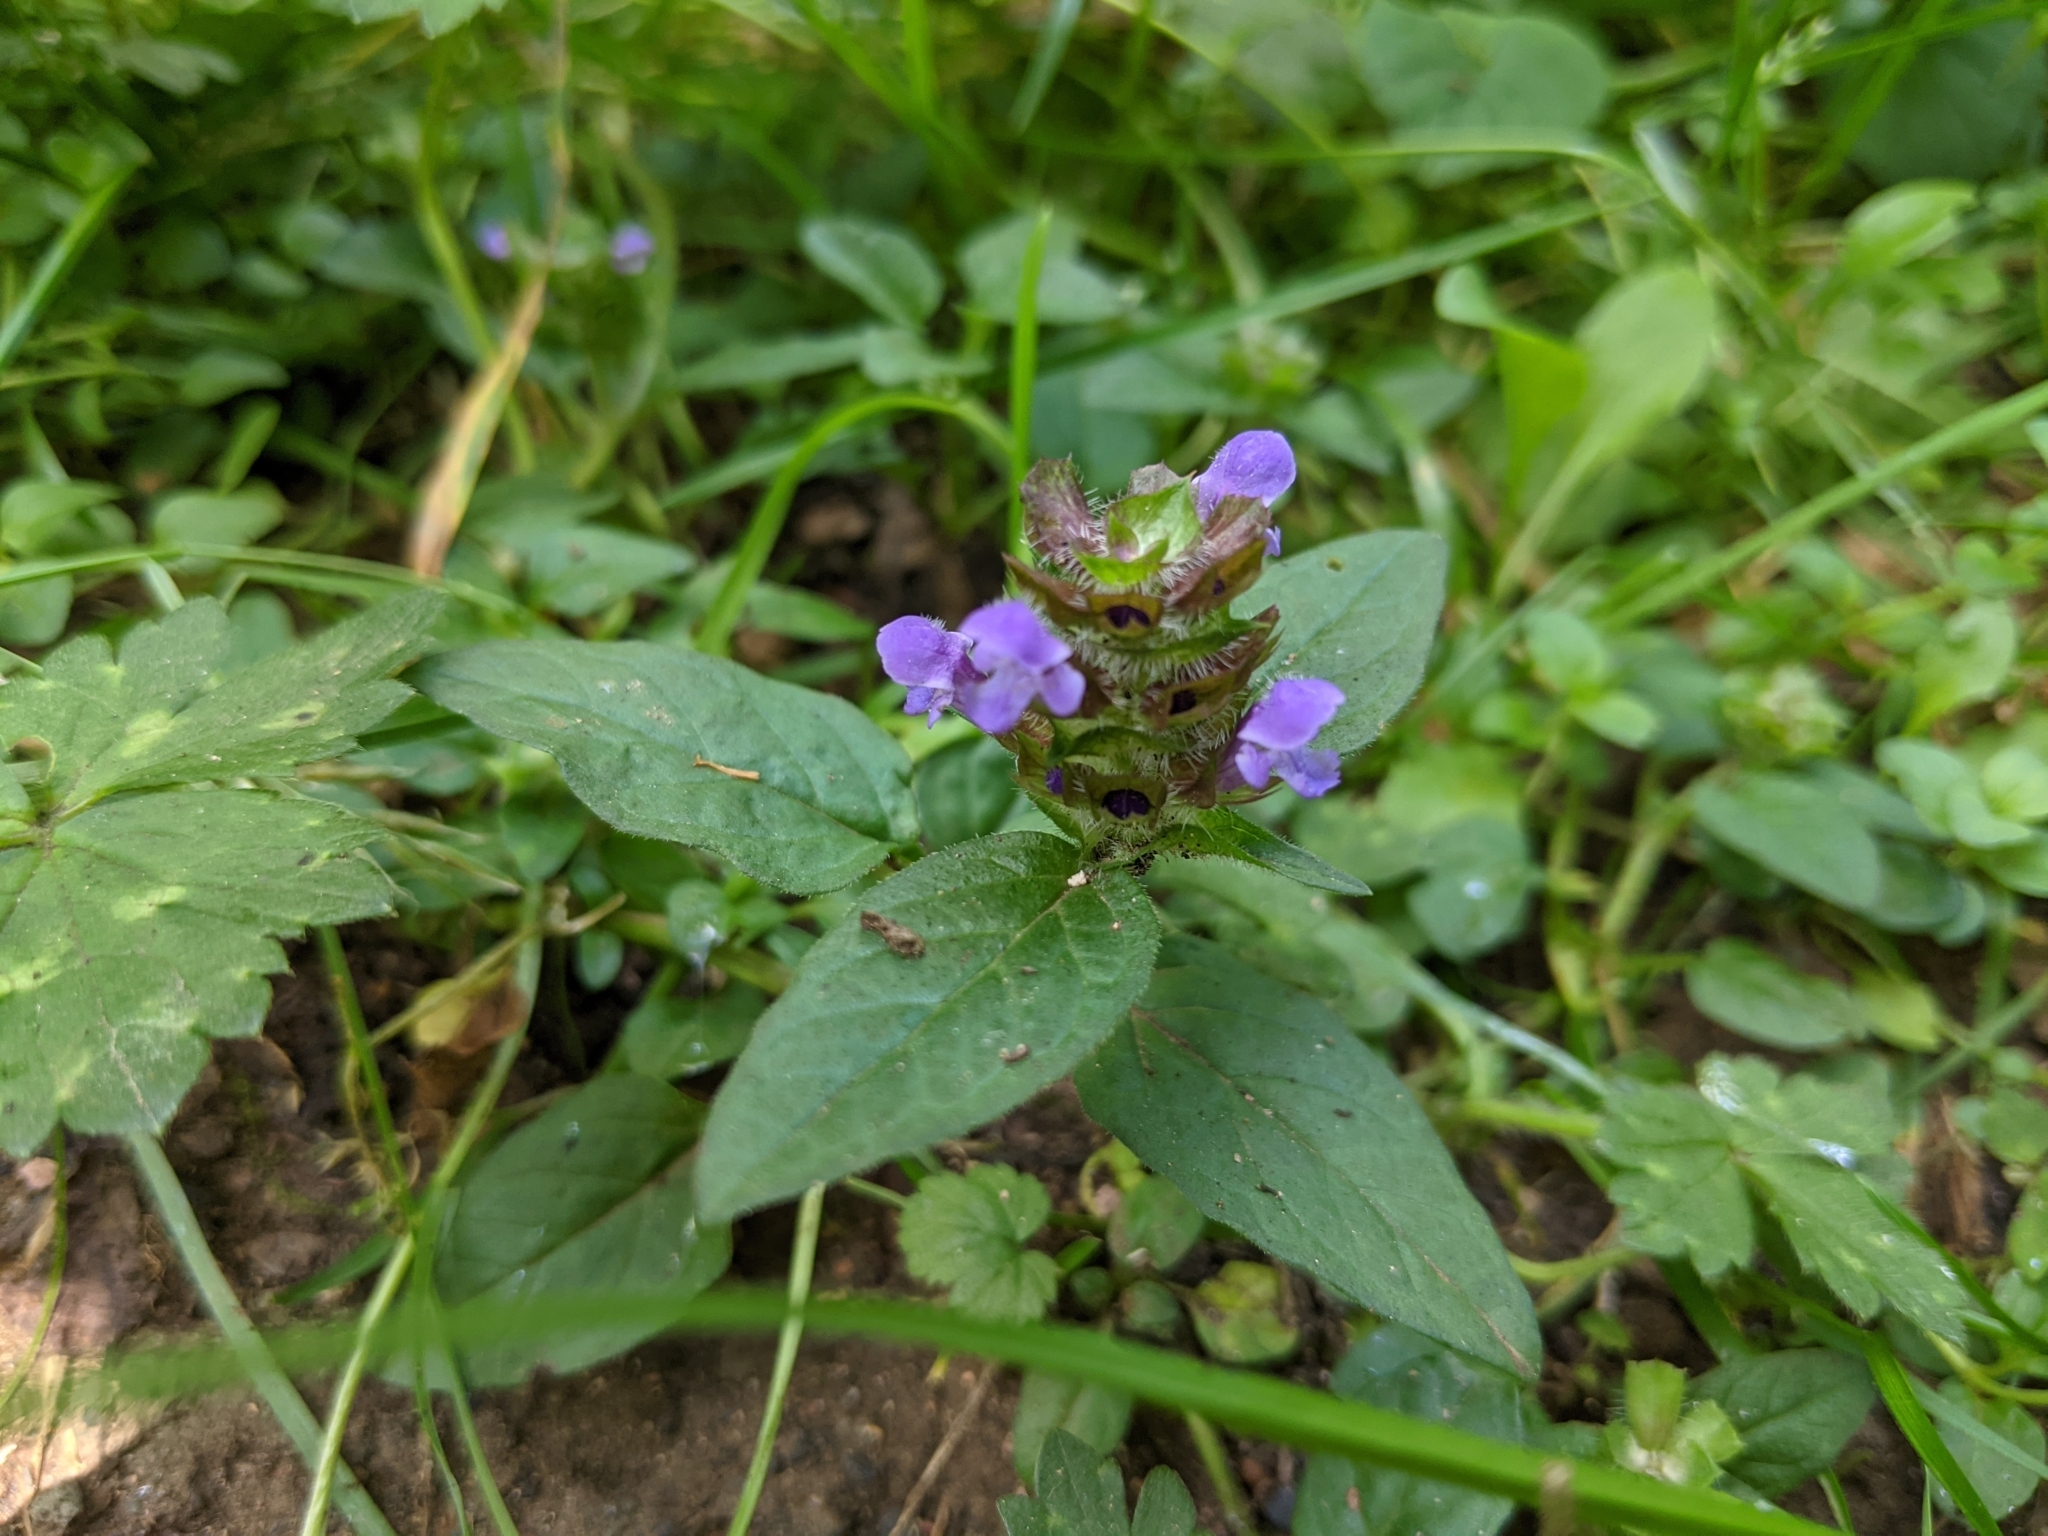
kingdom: Plantae
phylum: Tracheophyta
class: Magnoliopsida
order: Lamiales
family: Lamiaceae
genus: Prunella
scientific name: Prunella vulgaris
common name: Heal-all
